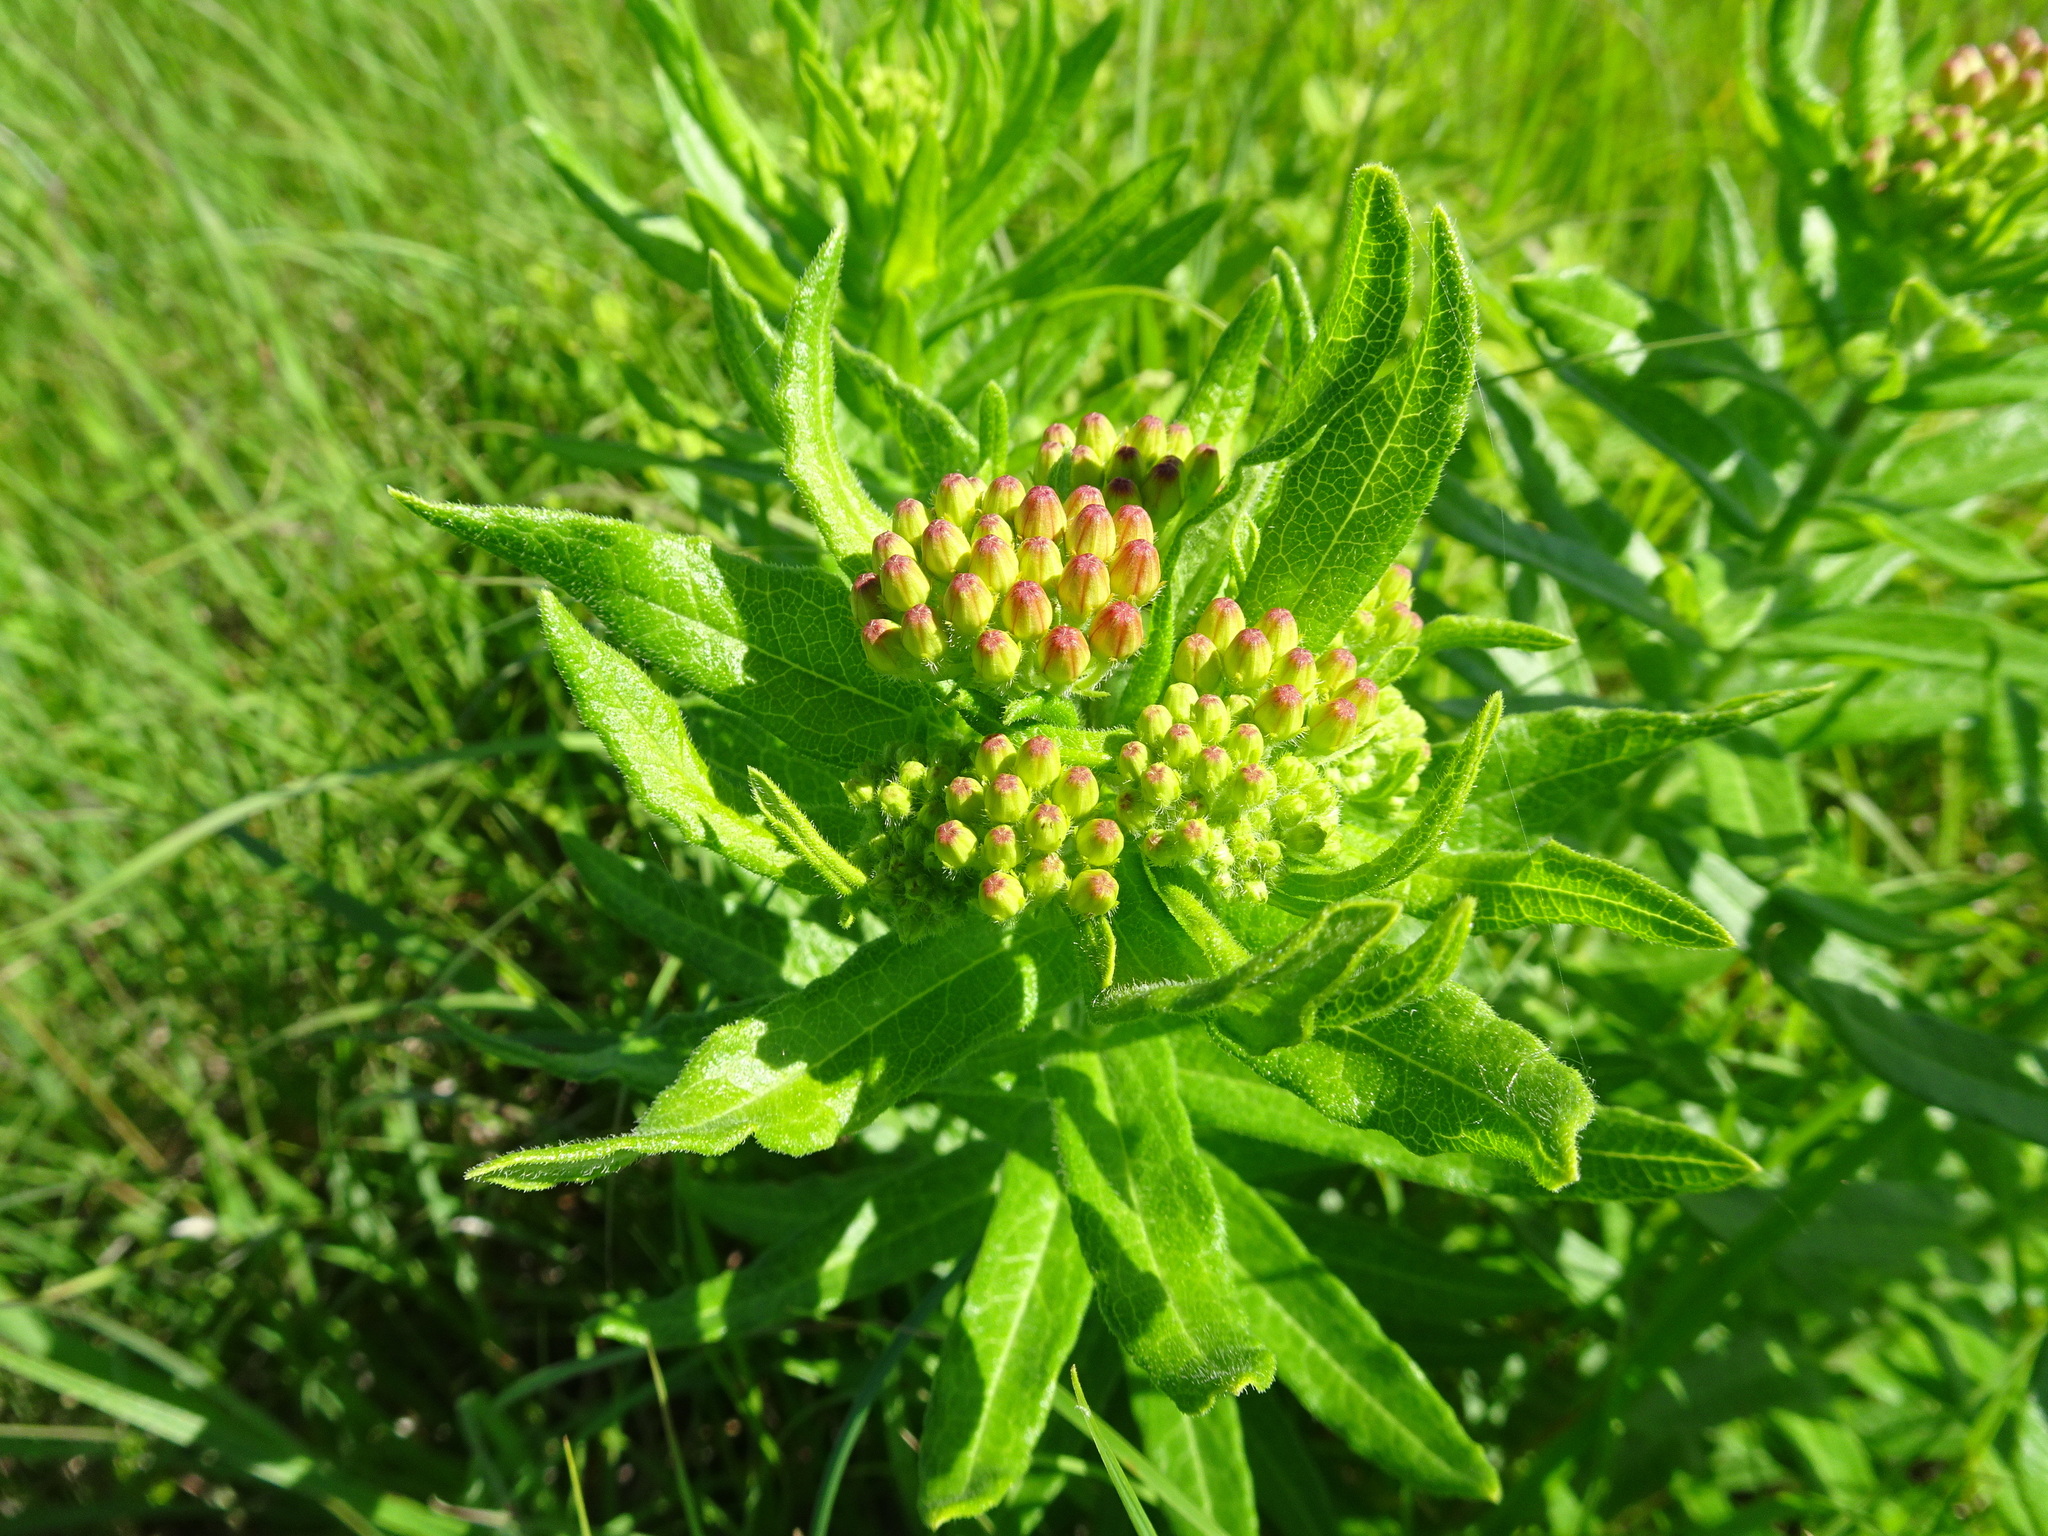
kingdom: Plantae
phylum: Tracheophyta
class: Magnoliopsida
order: Gentianales
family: Apocynaceae
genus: Asclepias
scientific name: Asclepias tuberosa
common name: Butterfly milkweed
